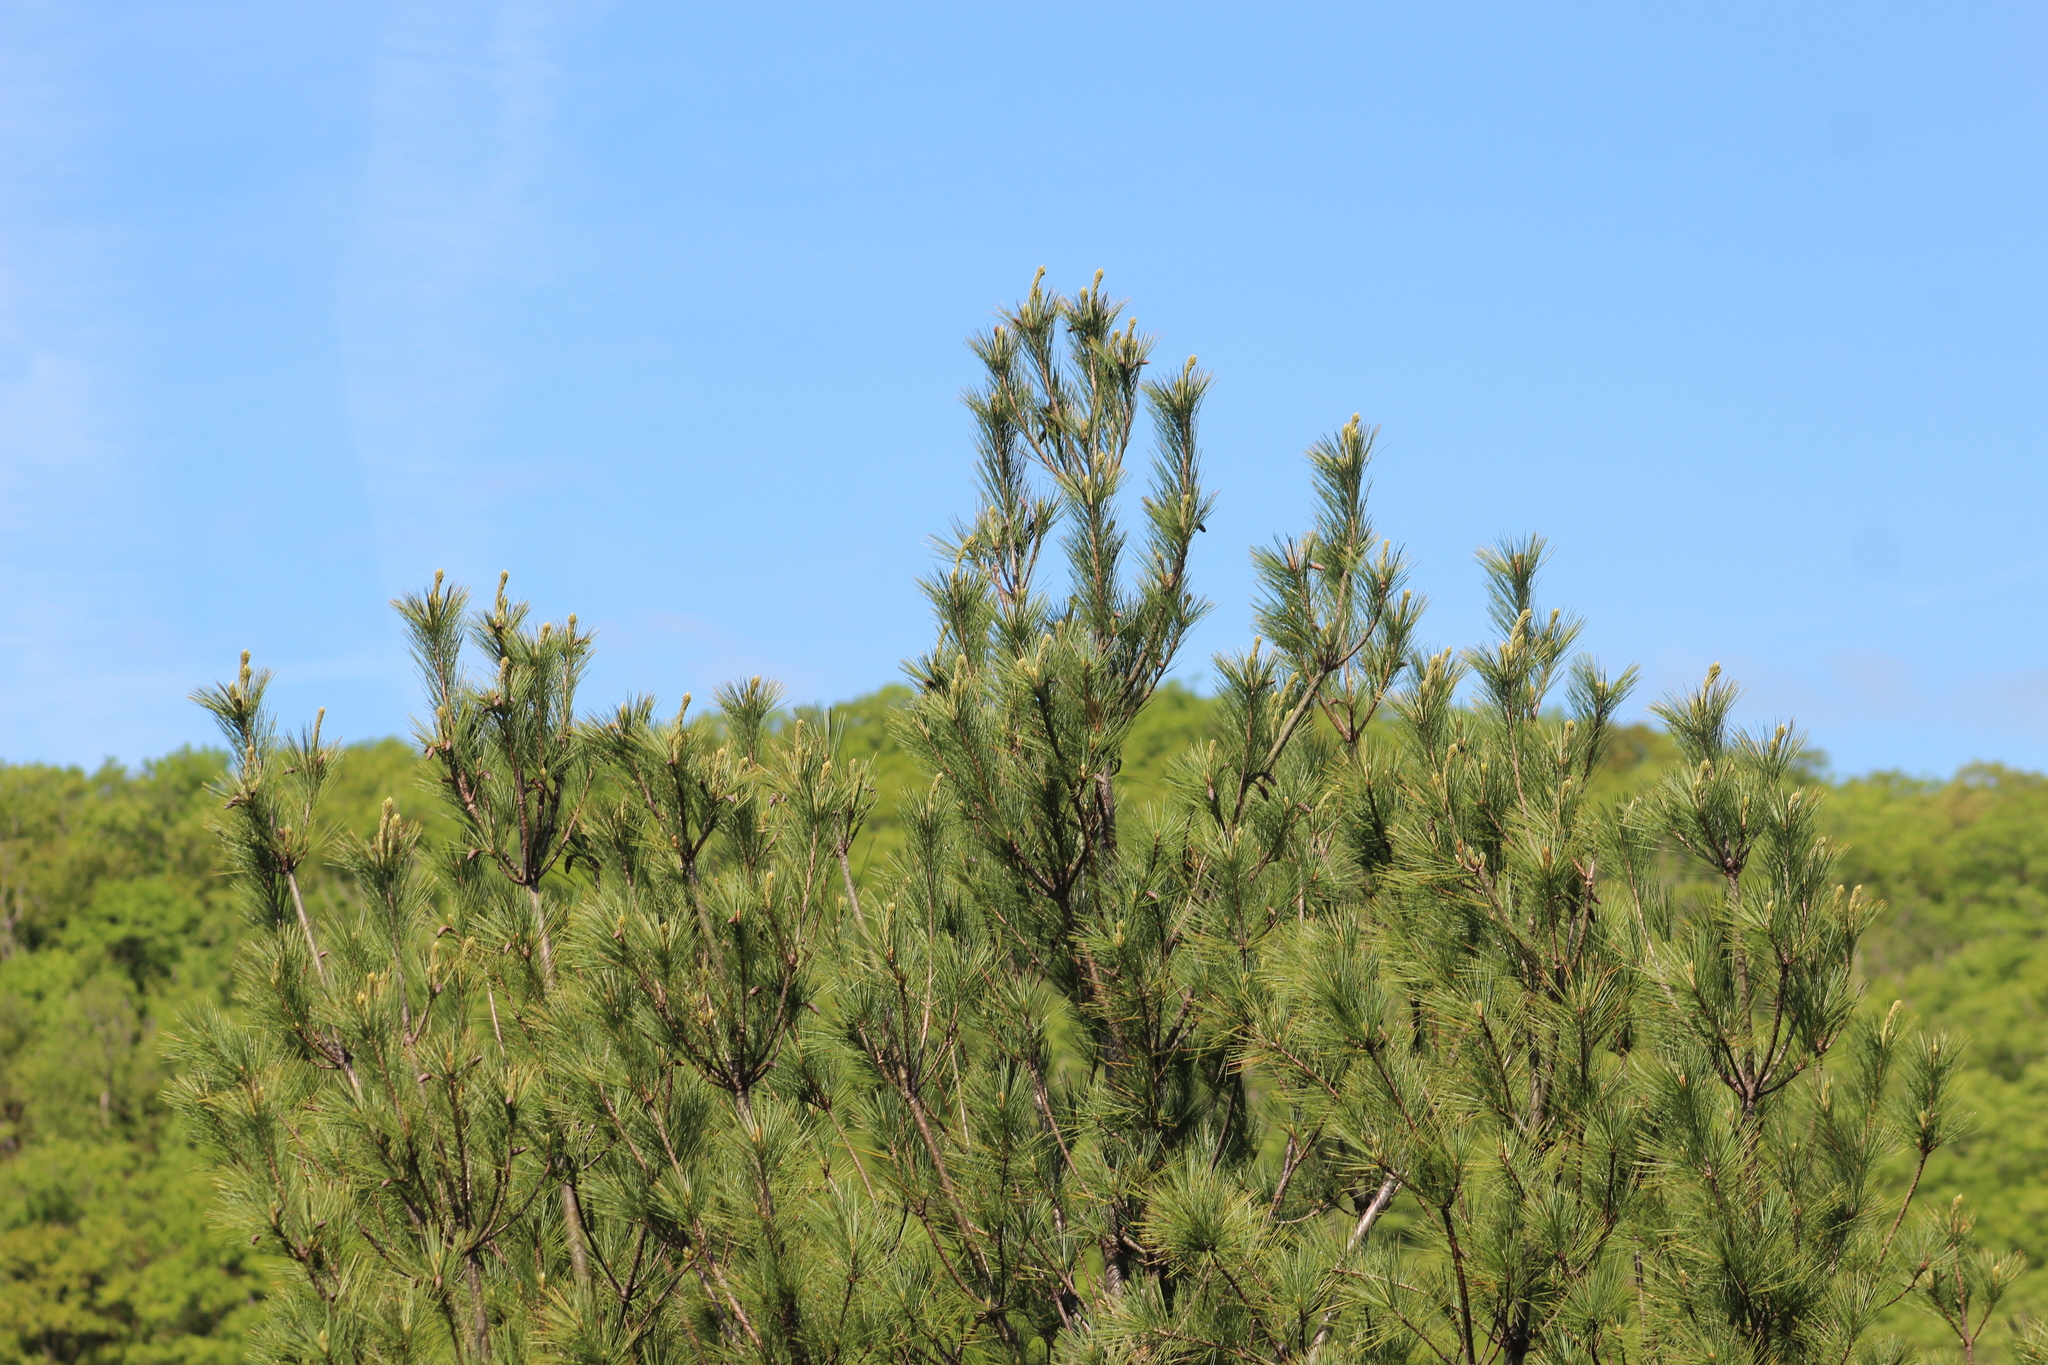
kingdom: Plantae
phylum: Tracheophyta
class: Pinopsida
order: Pinales
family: Pinaceae
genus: Pinus
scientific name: Pinus strobus
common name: Weymouth pine
